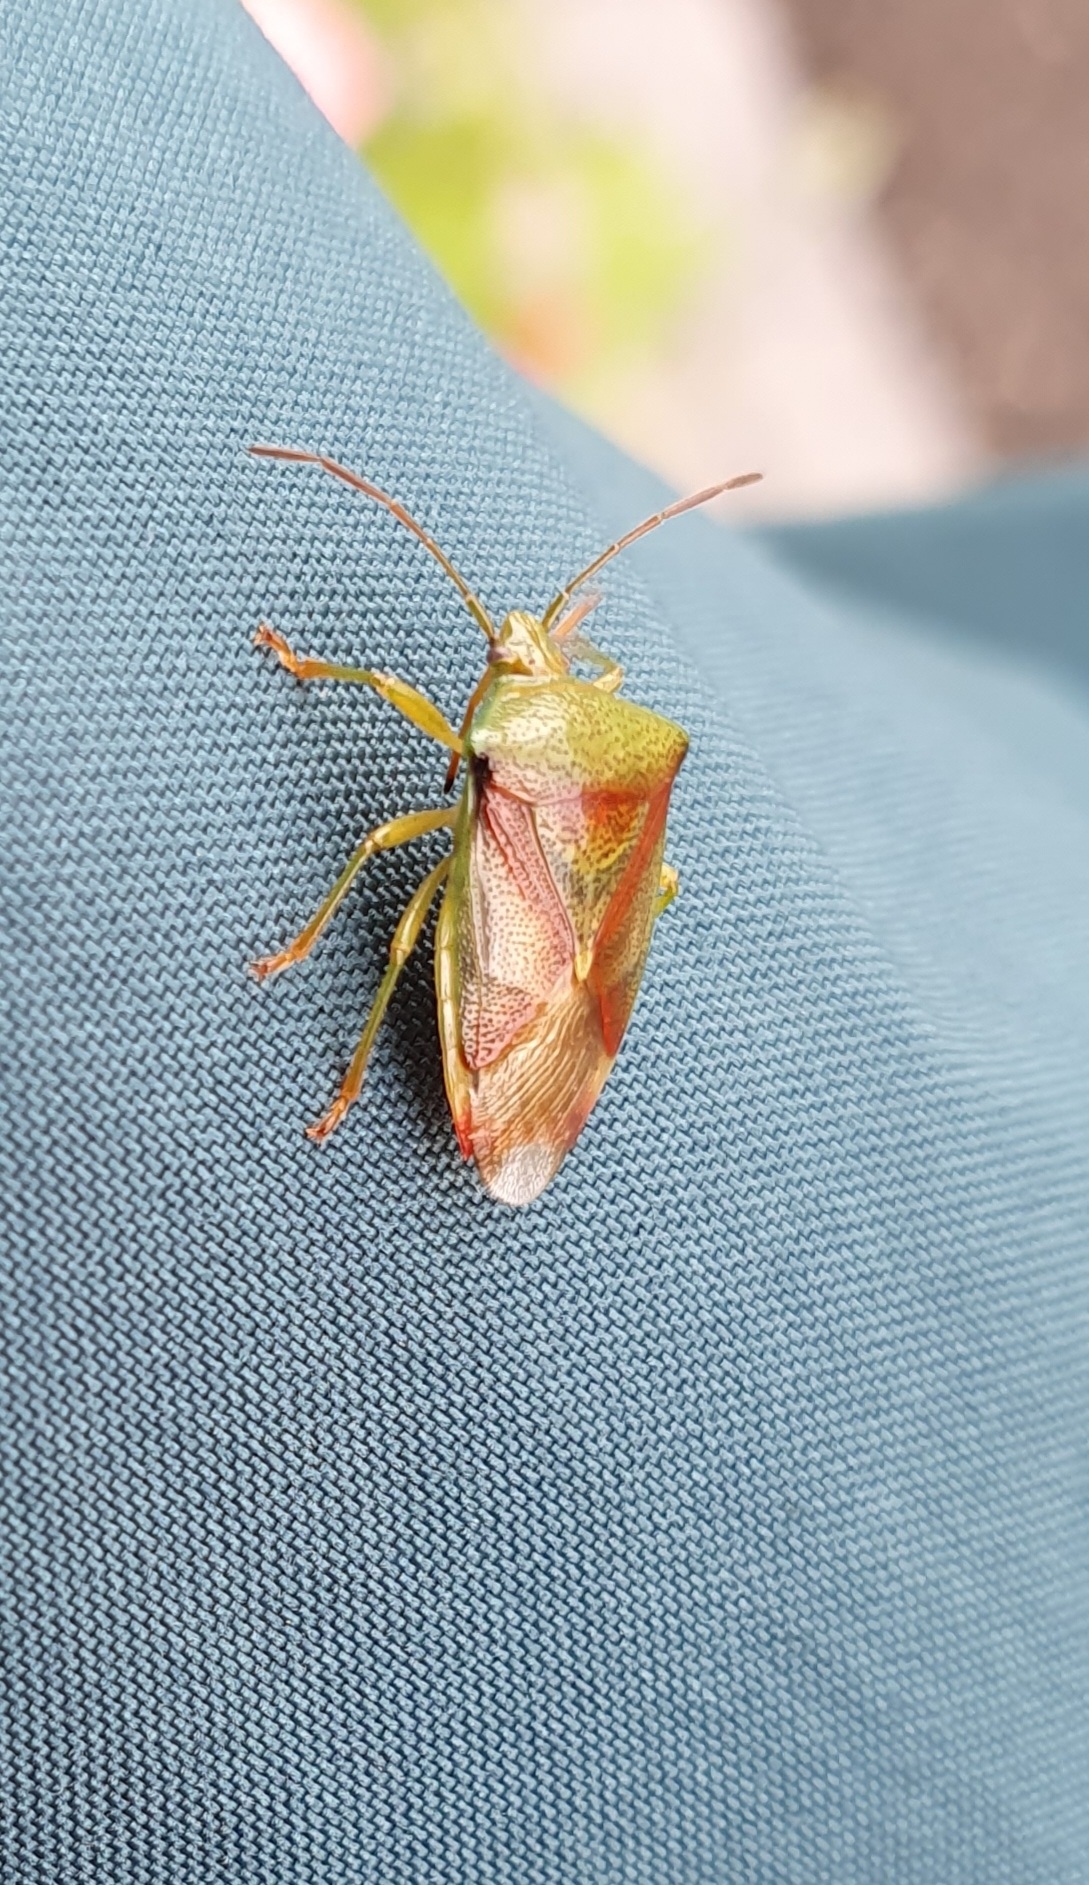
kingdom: Animalia
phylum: Arthropoda
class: Insecta
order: Hemiptera
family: Acanthosomatidae
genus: Elasmostethus
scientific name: Elasmostethus interstinctus
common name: Birch shieldbug
